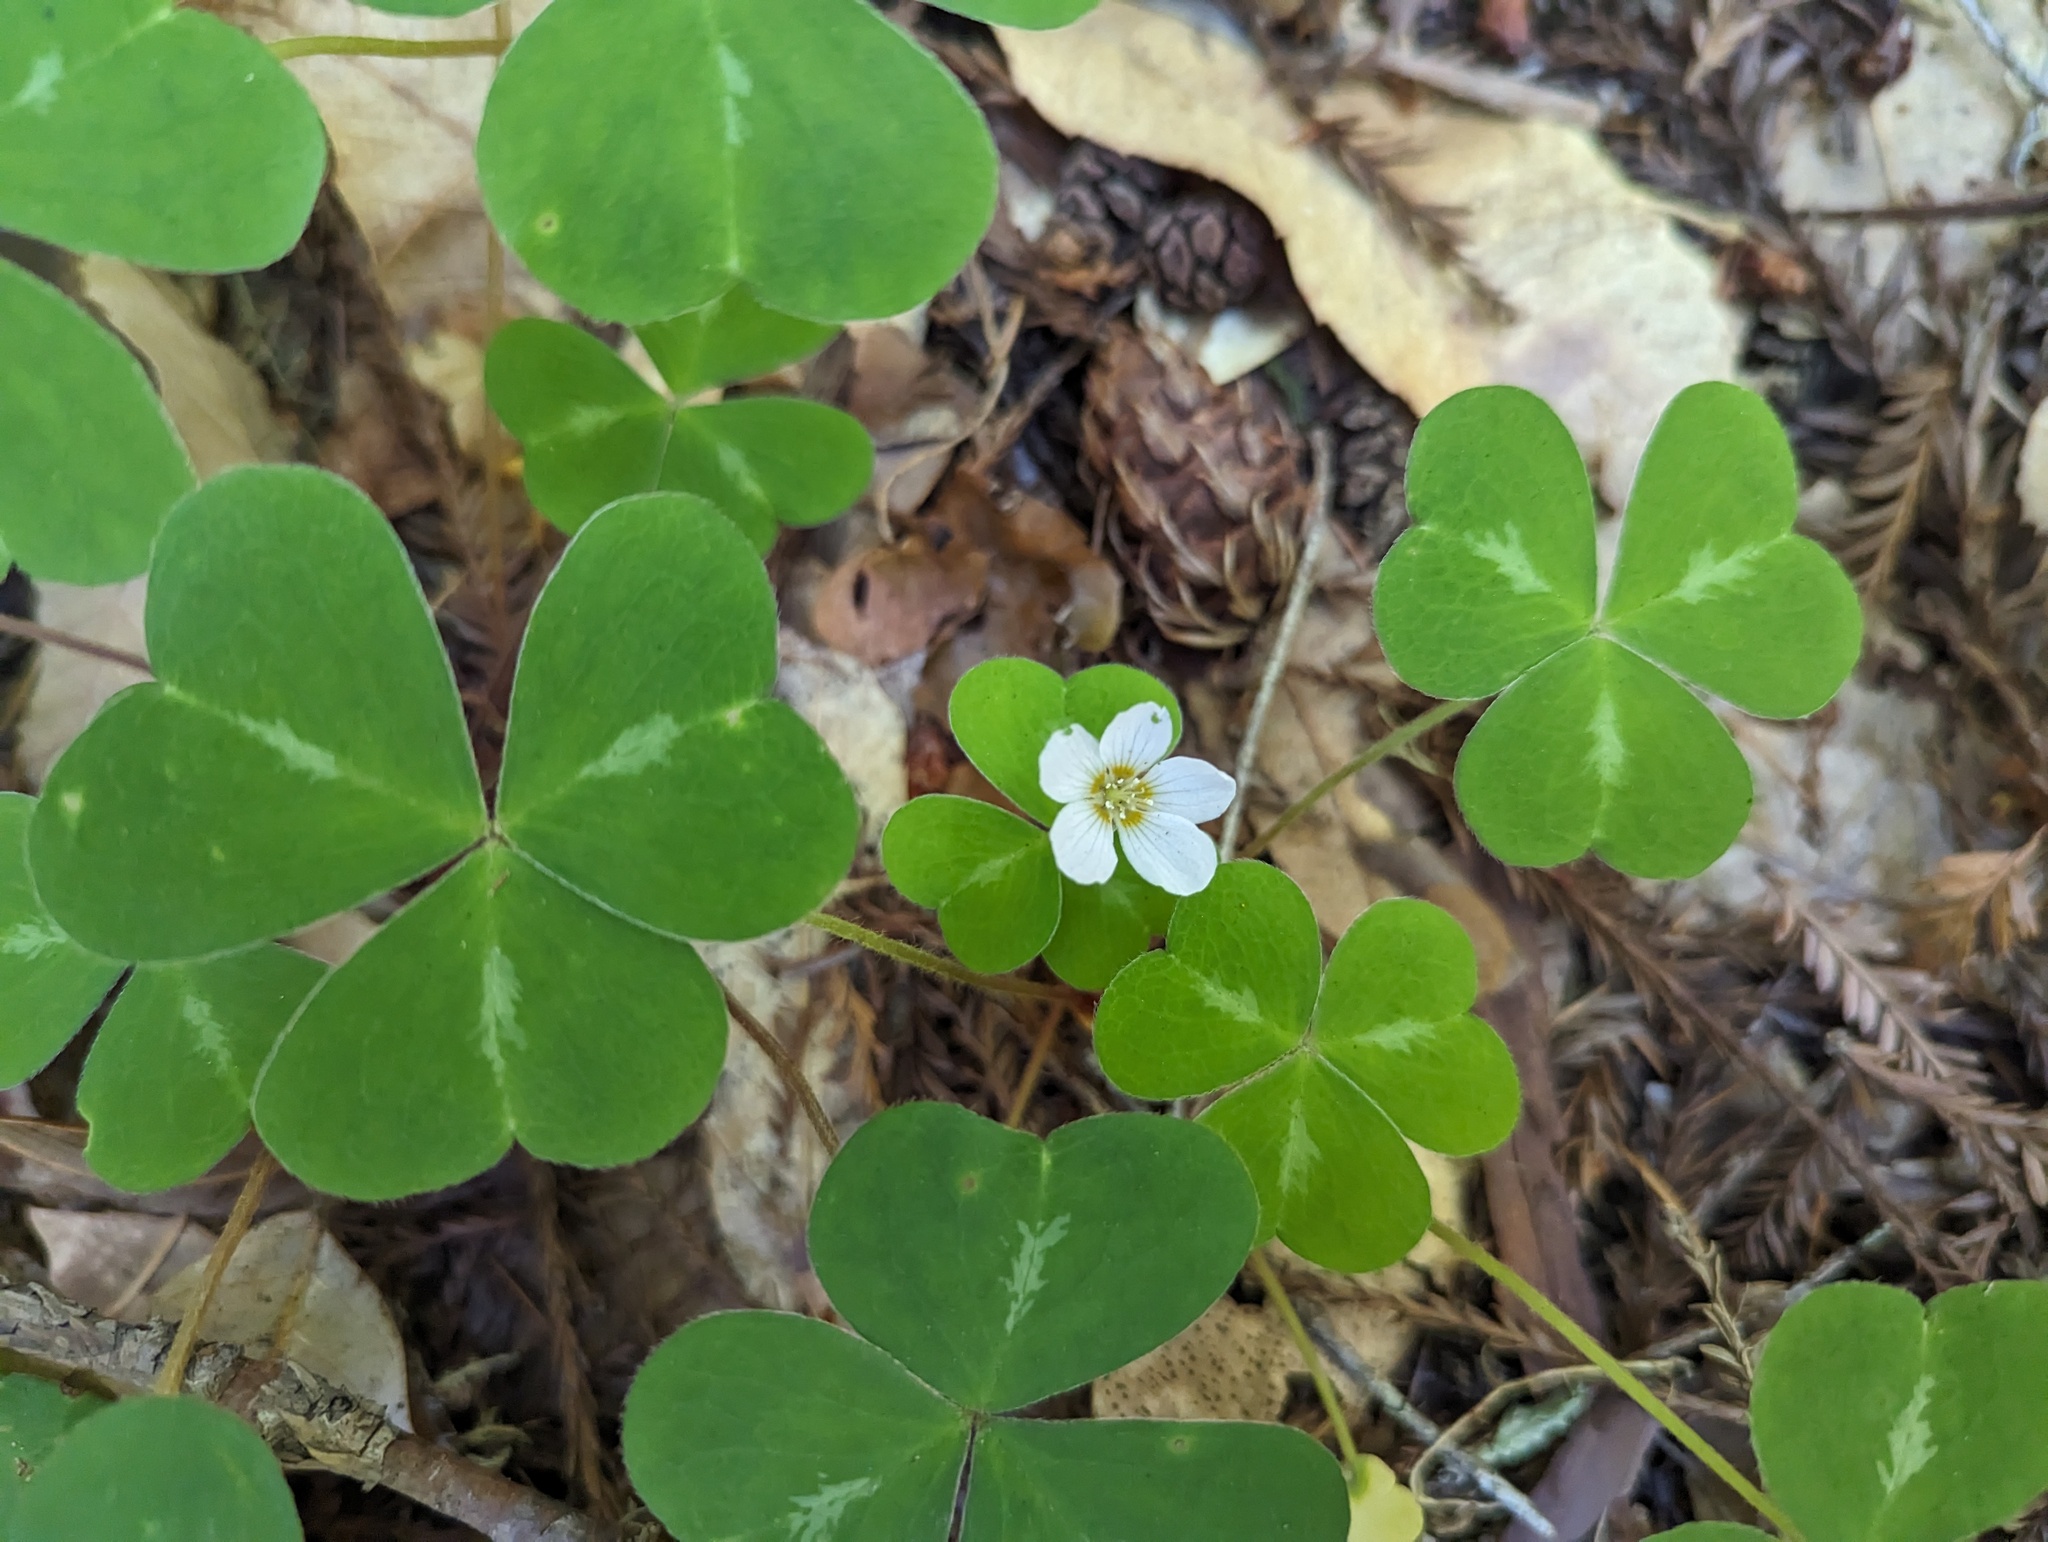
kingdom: Plantae
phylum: Tracheophyta
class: Magnoliopsida
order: Oxalidales
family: Oxalidaceae
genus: Oxalis
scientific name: Oxalis oregana
